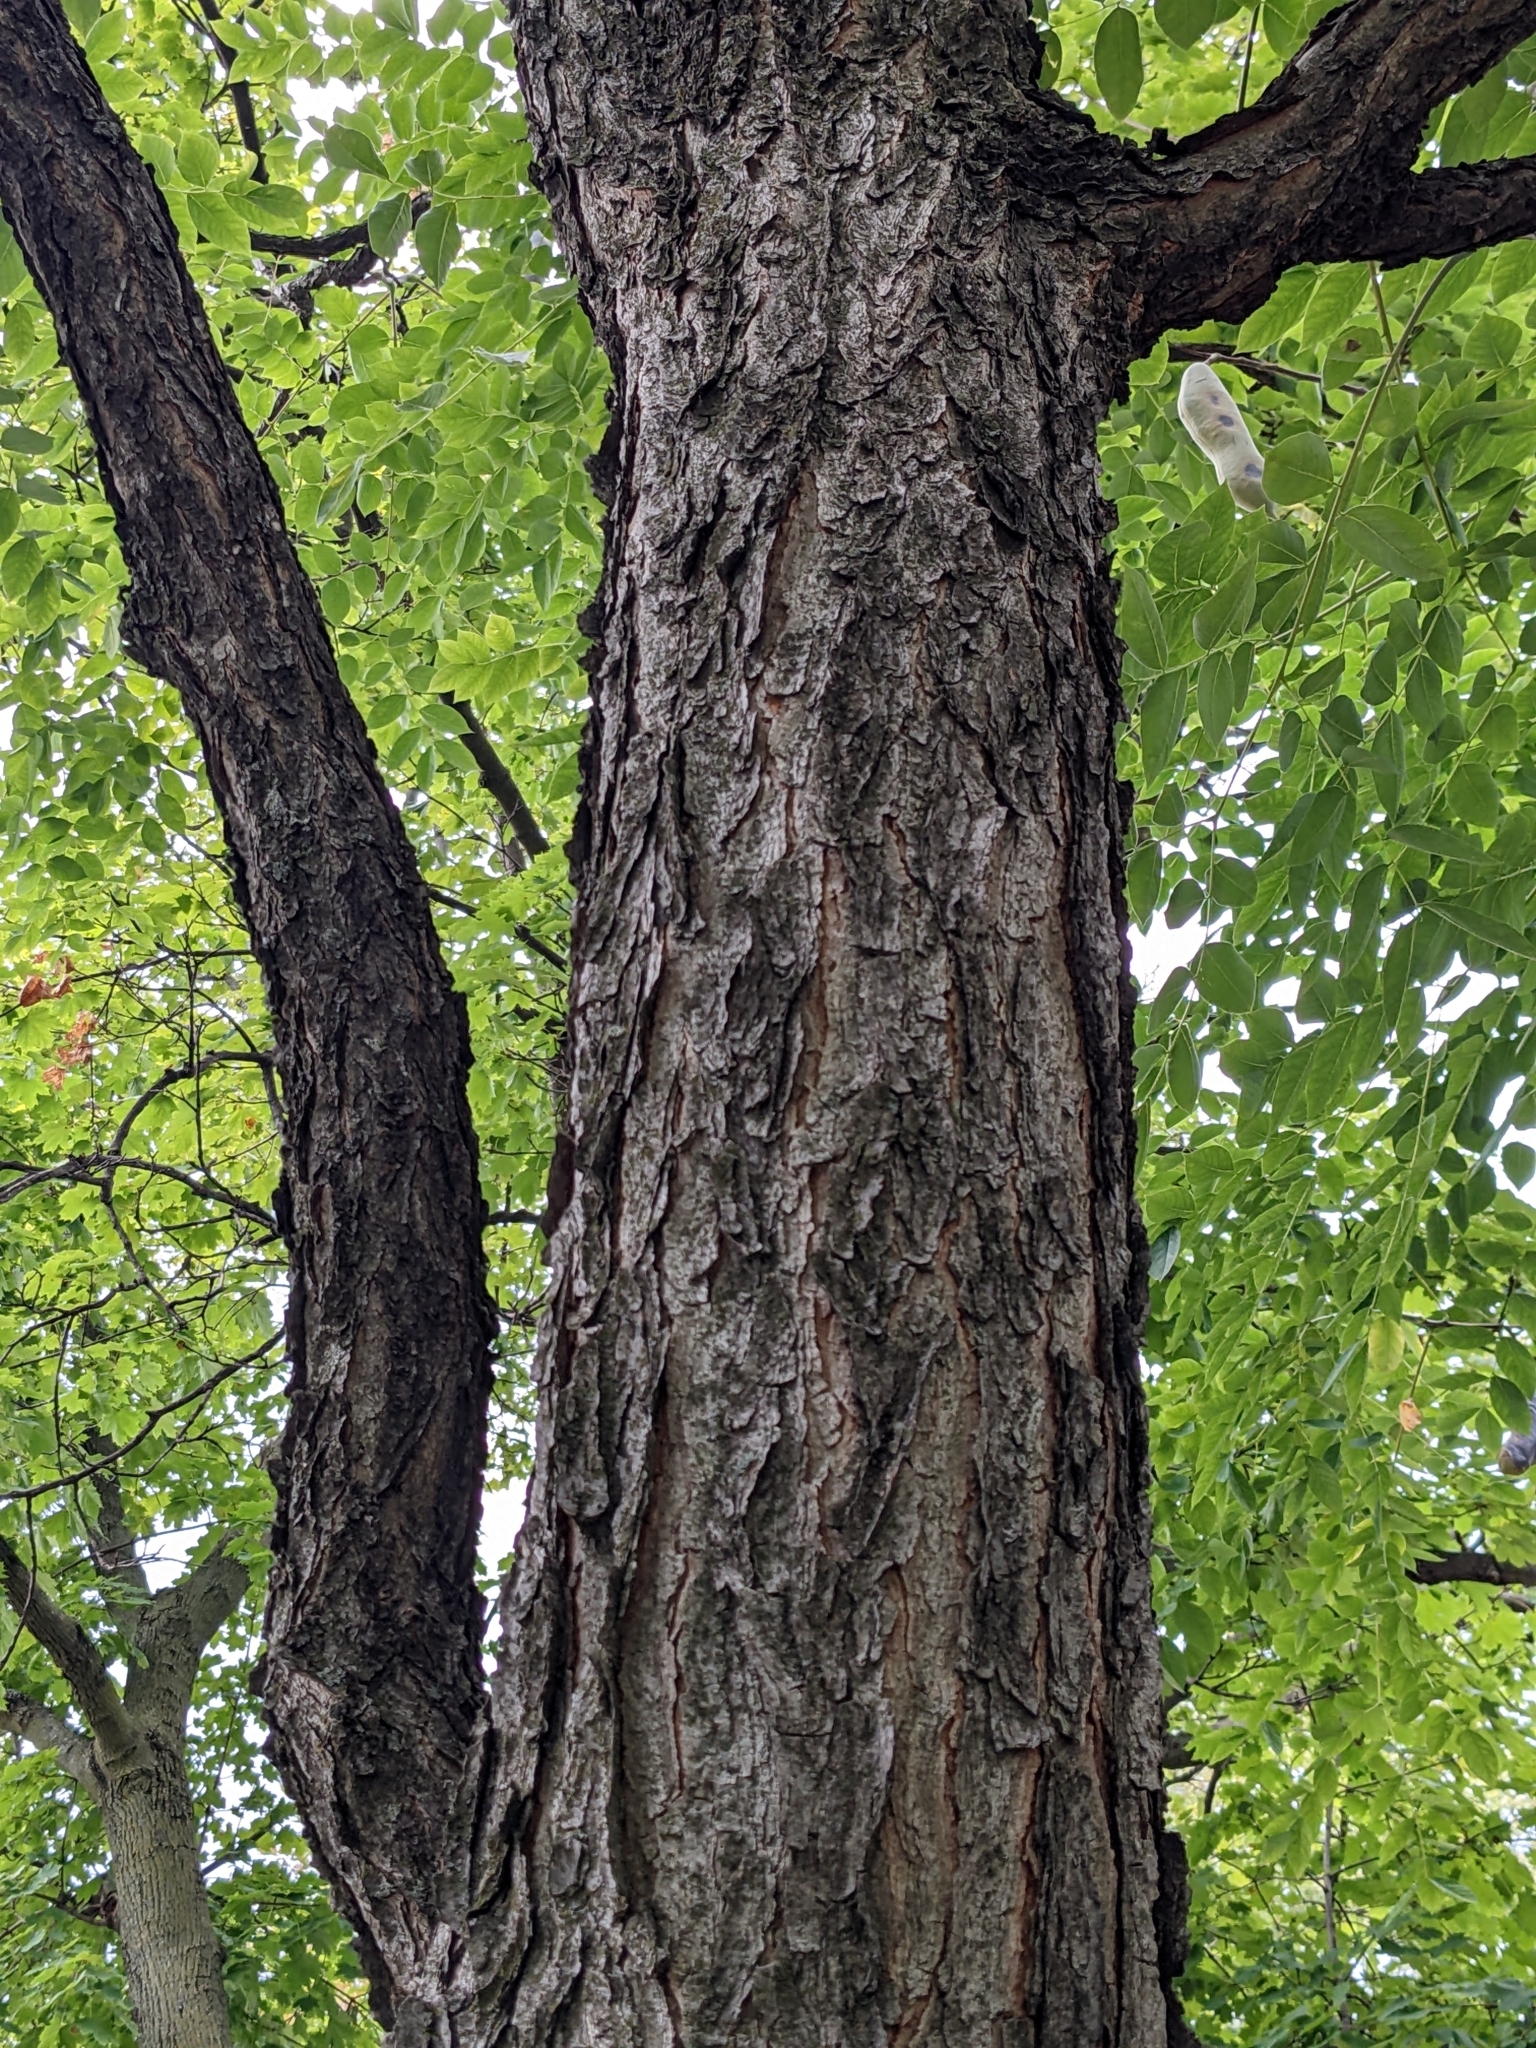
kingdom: Plantae
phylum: Tracheophyta
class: Magnoliopsida
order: Fabales
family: Fabaceae
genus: Gymnocladus
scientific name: Gymnocladus dioicus
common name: Kentucky coffee-tree
